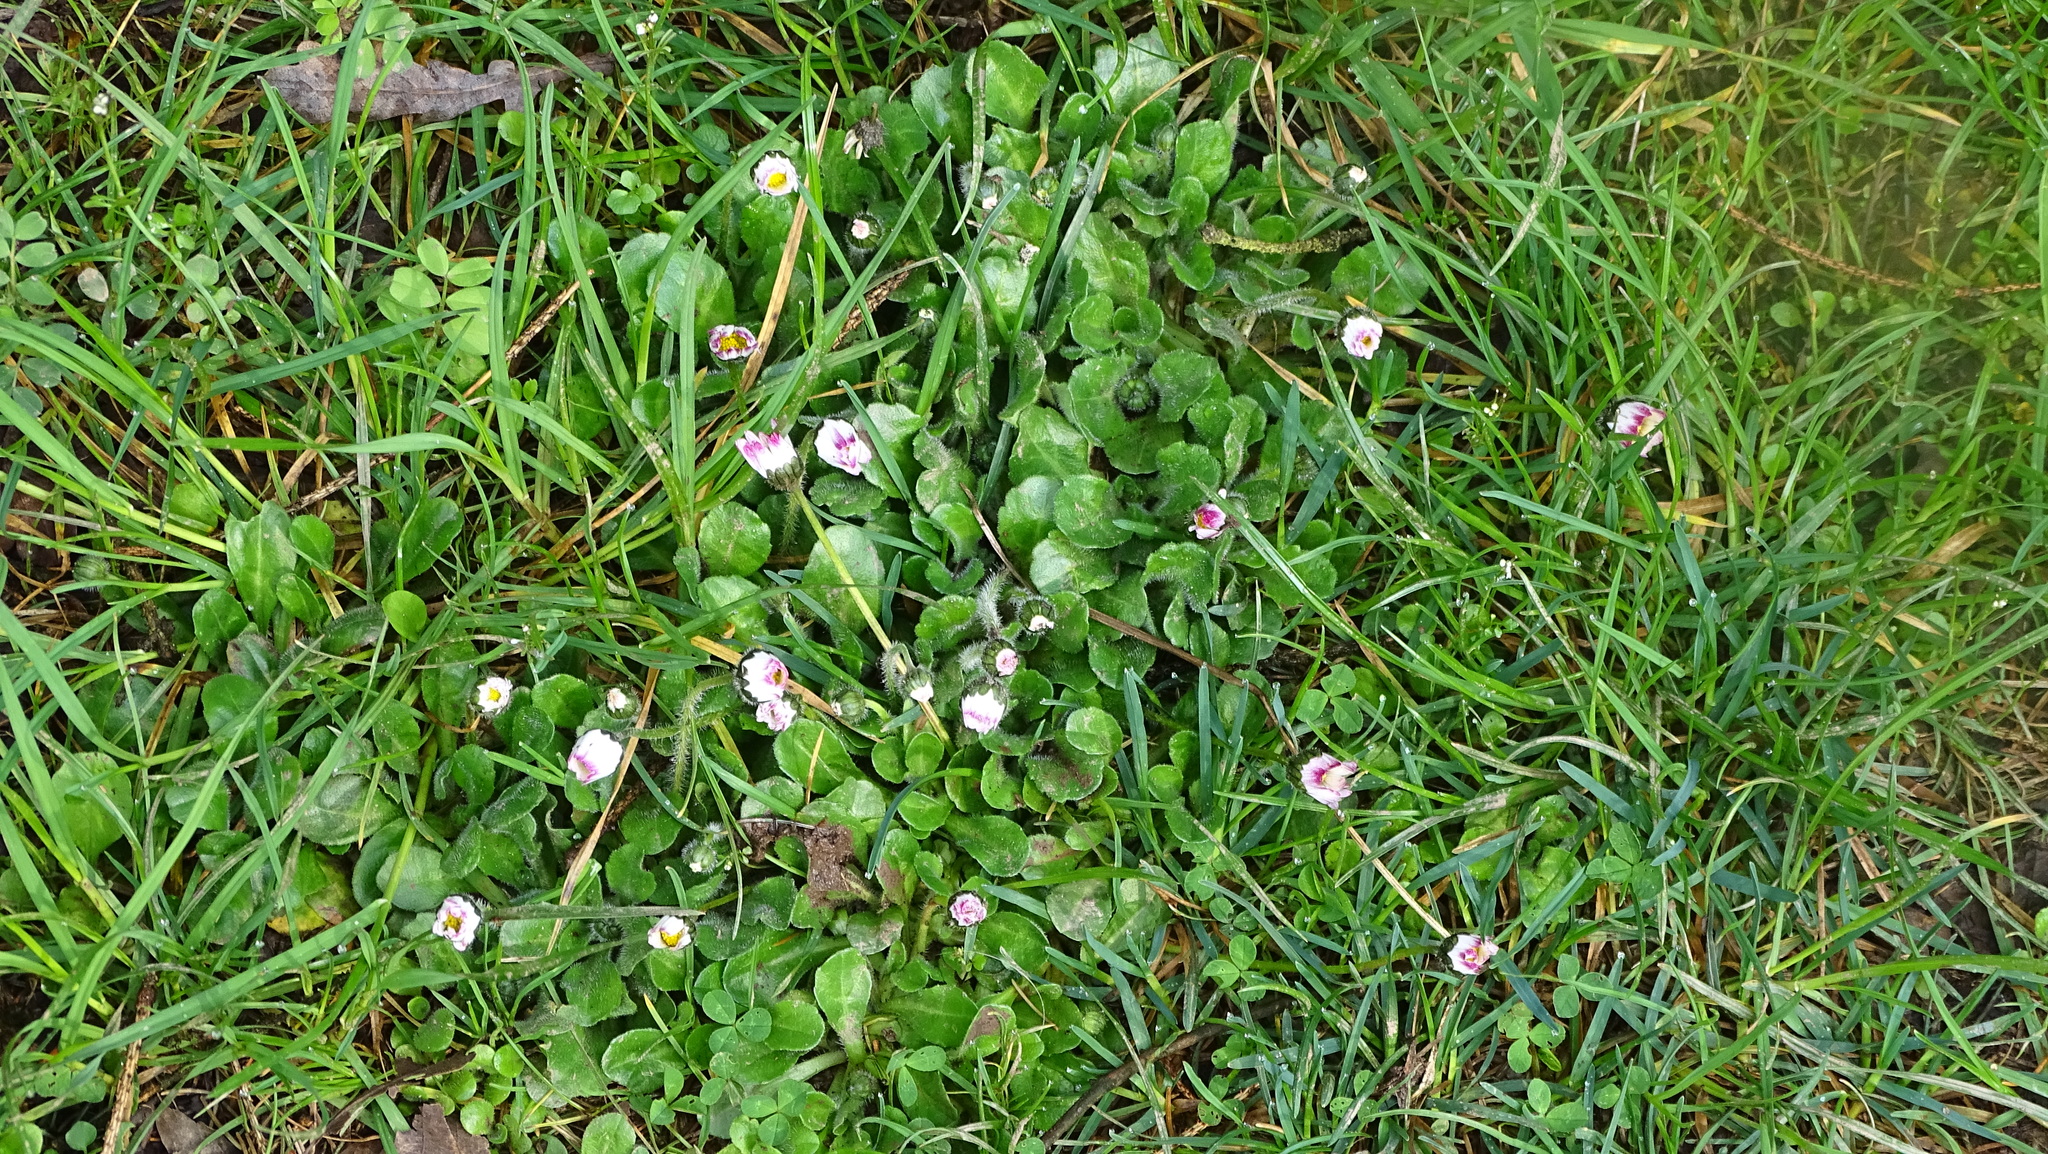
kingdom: Plantae
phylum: Tracheophyta
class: Magnoliopsida
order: Asterales
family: Asteraceae
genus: Bellis
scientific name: Bellis perennis
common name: Lawndaisy
